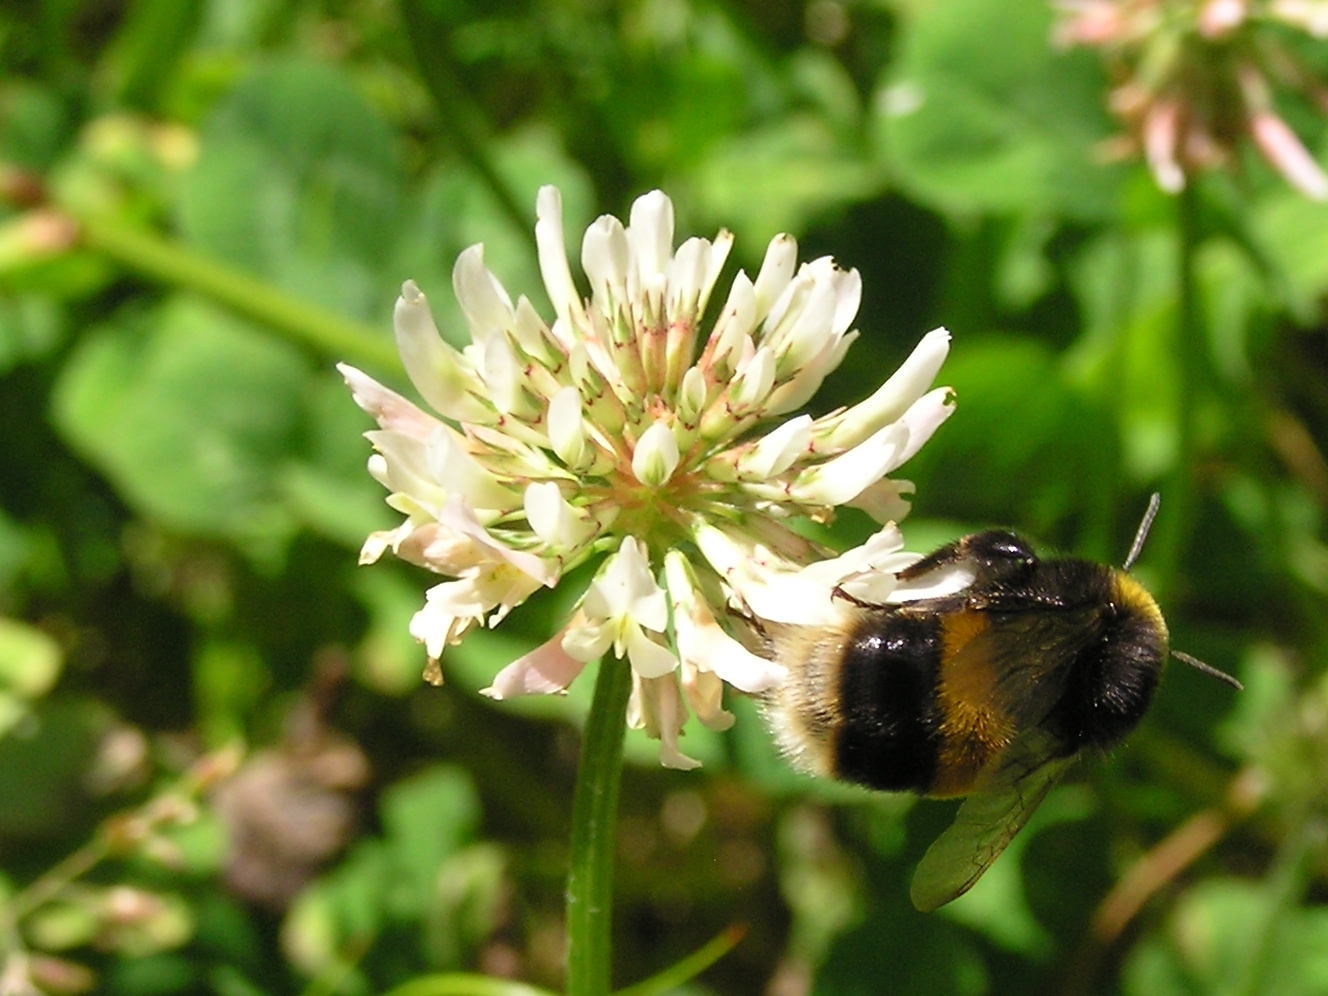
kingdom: Animalia
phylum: Arthropoda
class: Insecta
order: Hymenoptera
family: Apidae
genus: Bombus
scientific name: Bombus terrestris
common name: Buff-tailed bumblebee
